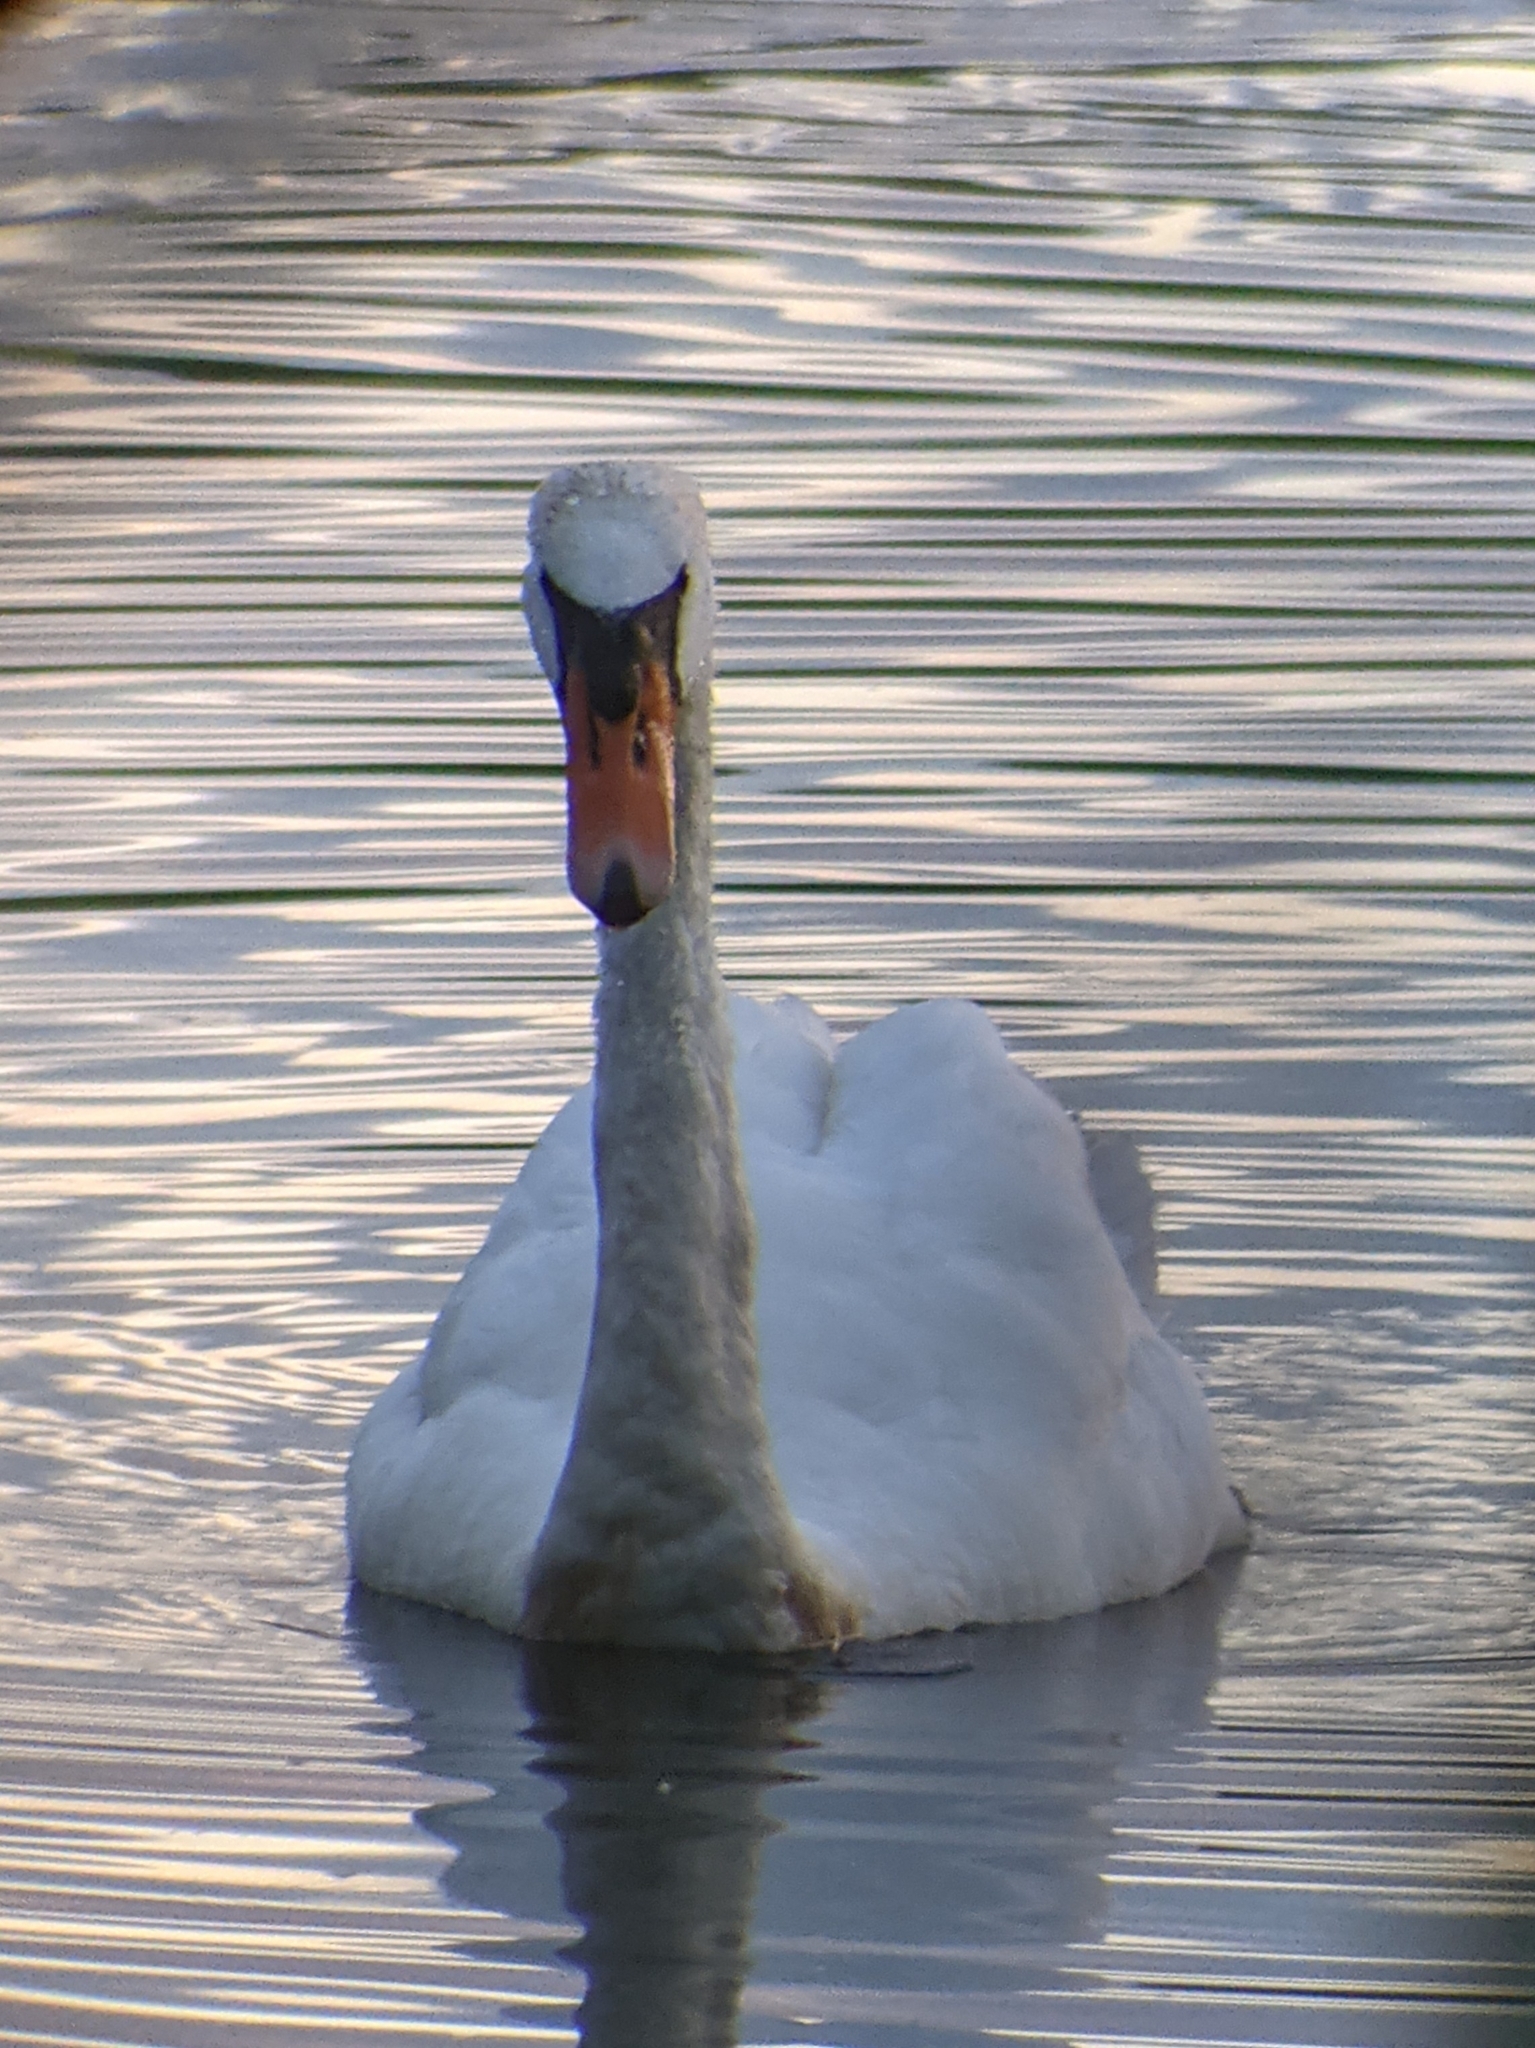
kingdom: Animalia
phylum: Chordata
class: Aves
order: Anseriformes
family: Anatidae
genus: Cygnus
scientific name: Cygnus olor
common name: Mute swan
